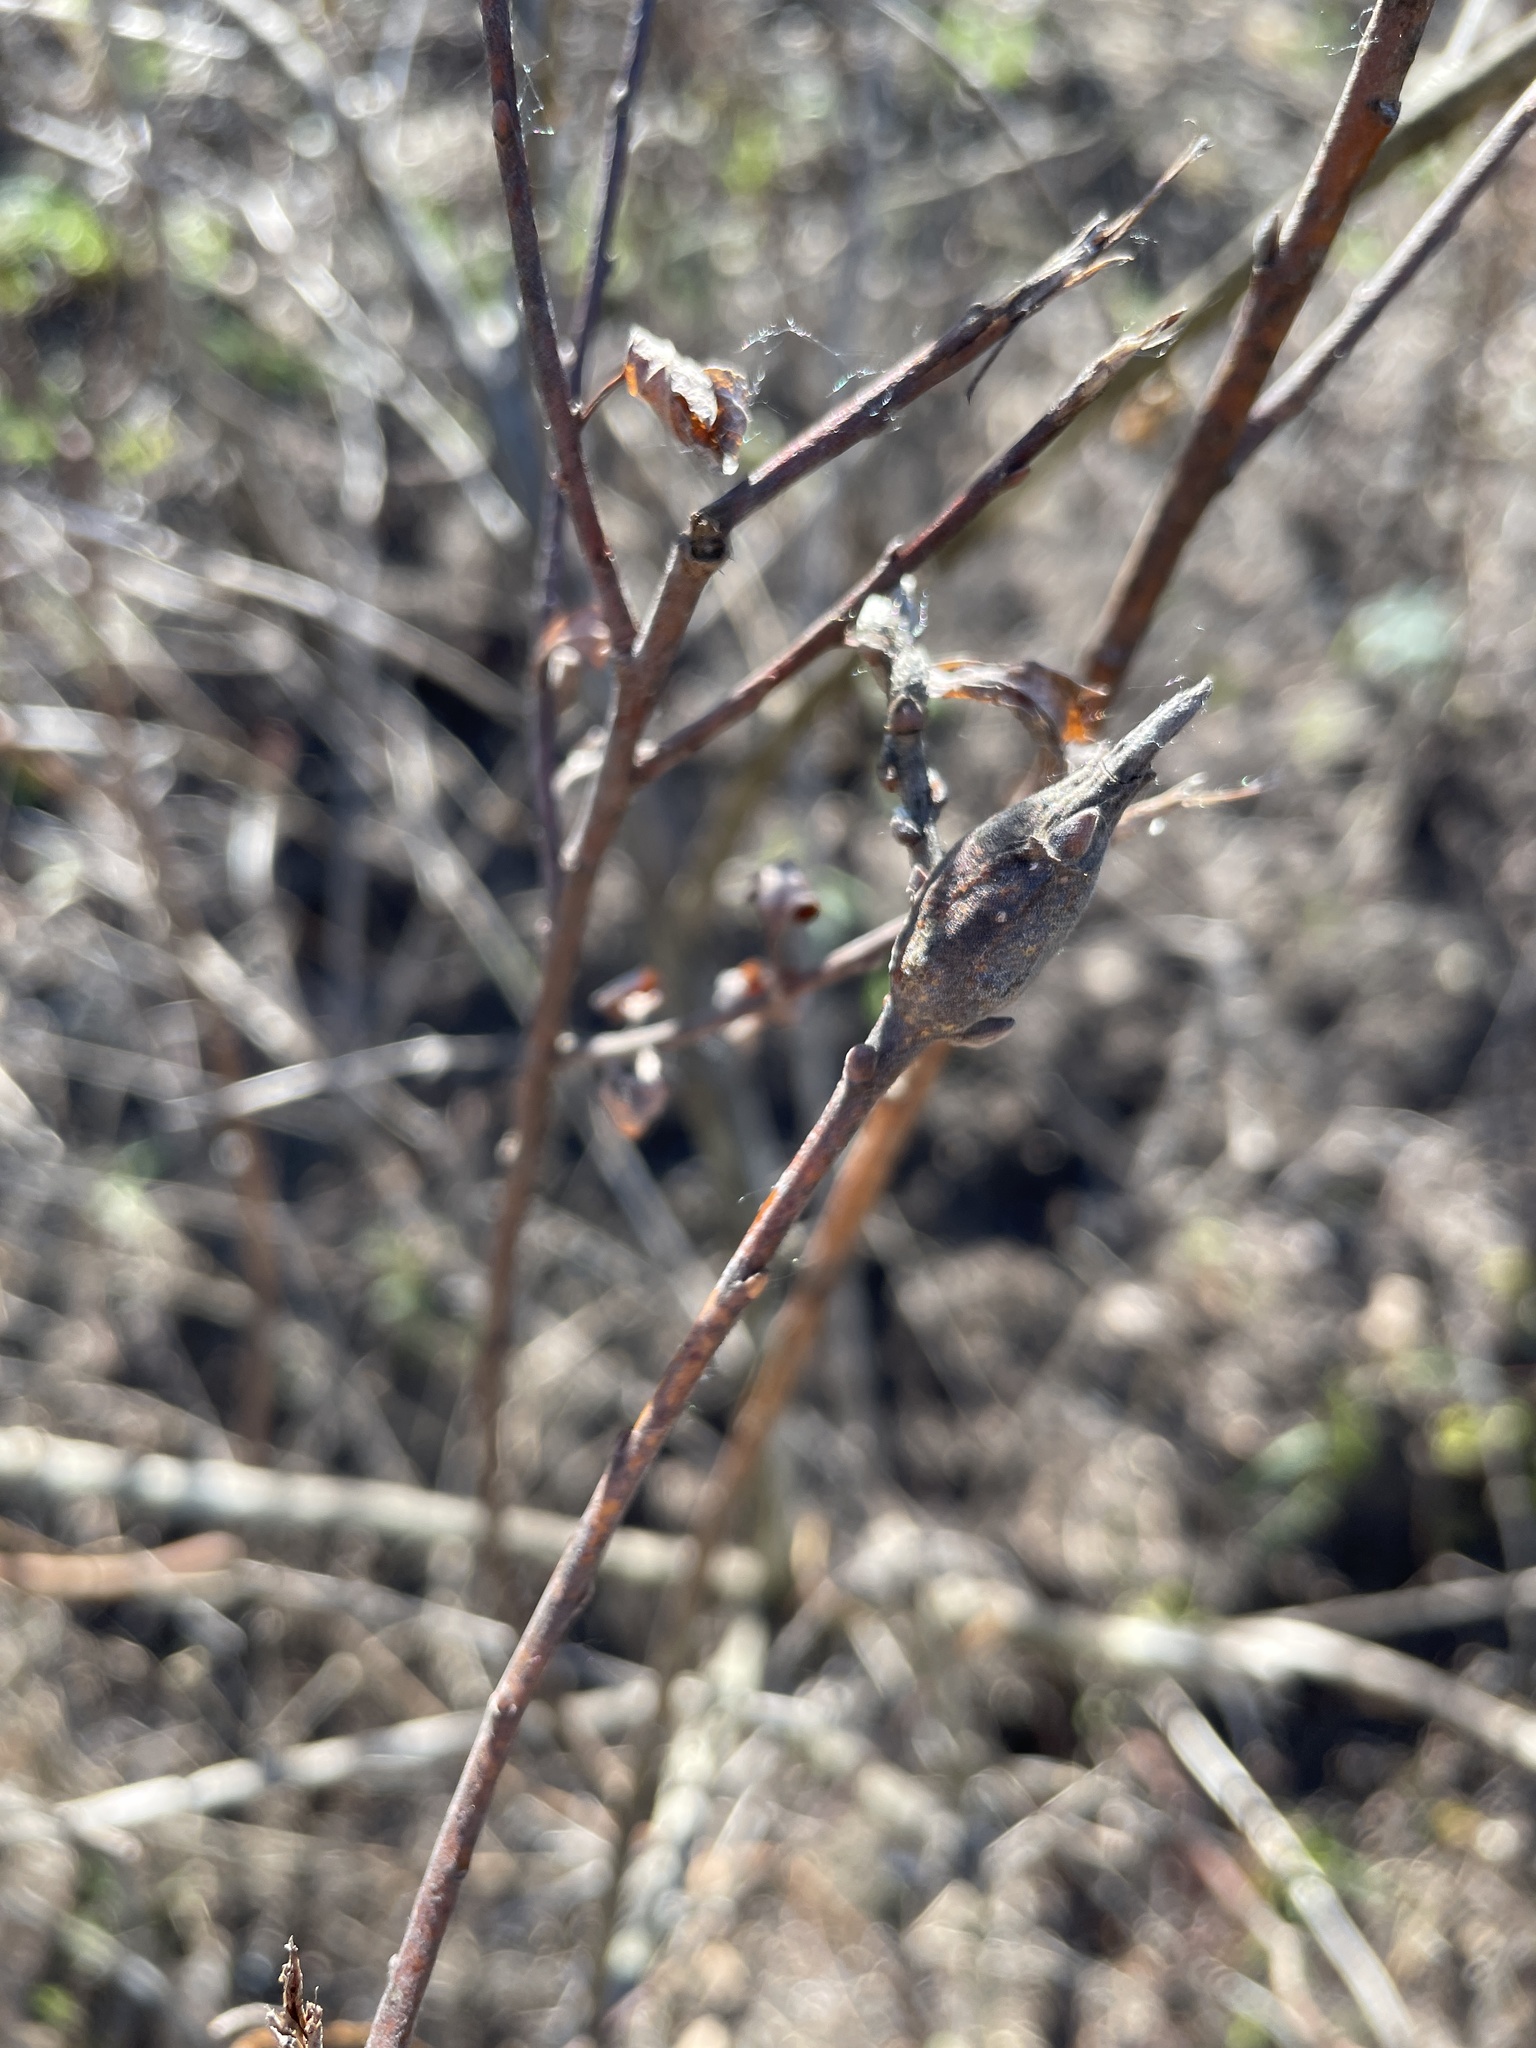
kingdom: Animalia
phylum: Arthropoda
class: Insecta
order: Diptera
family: Cecidomyiidae
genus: Thecodiplosis
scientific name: Thecodiplosis pinirigidae
